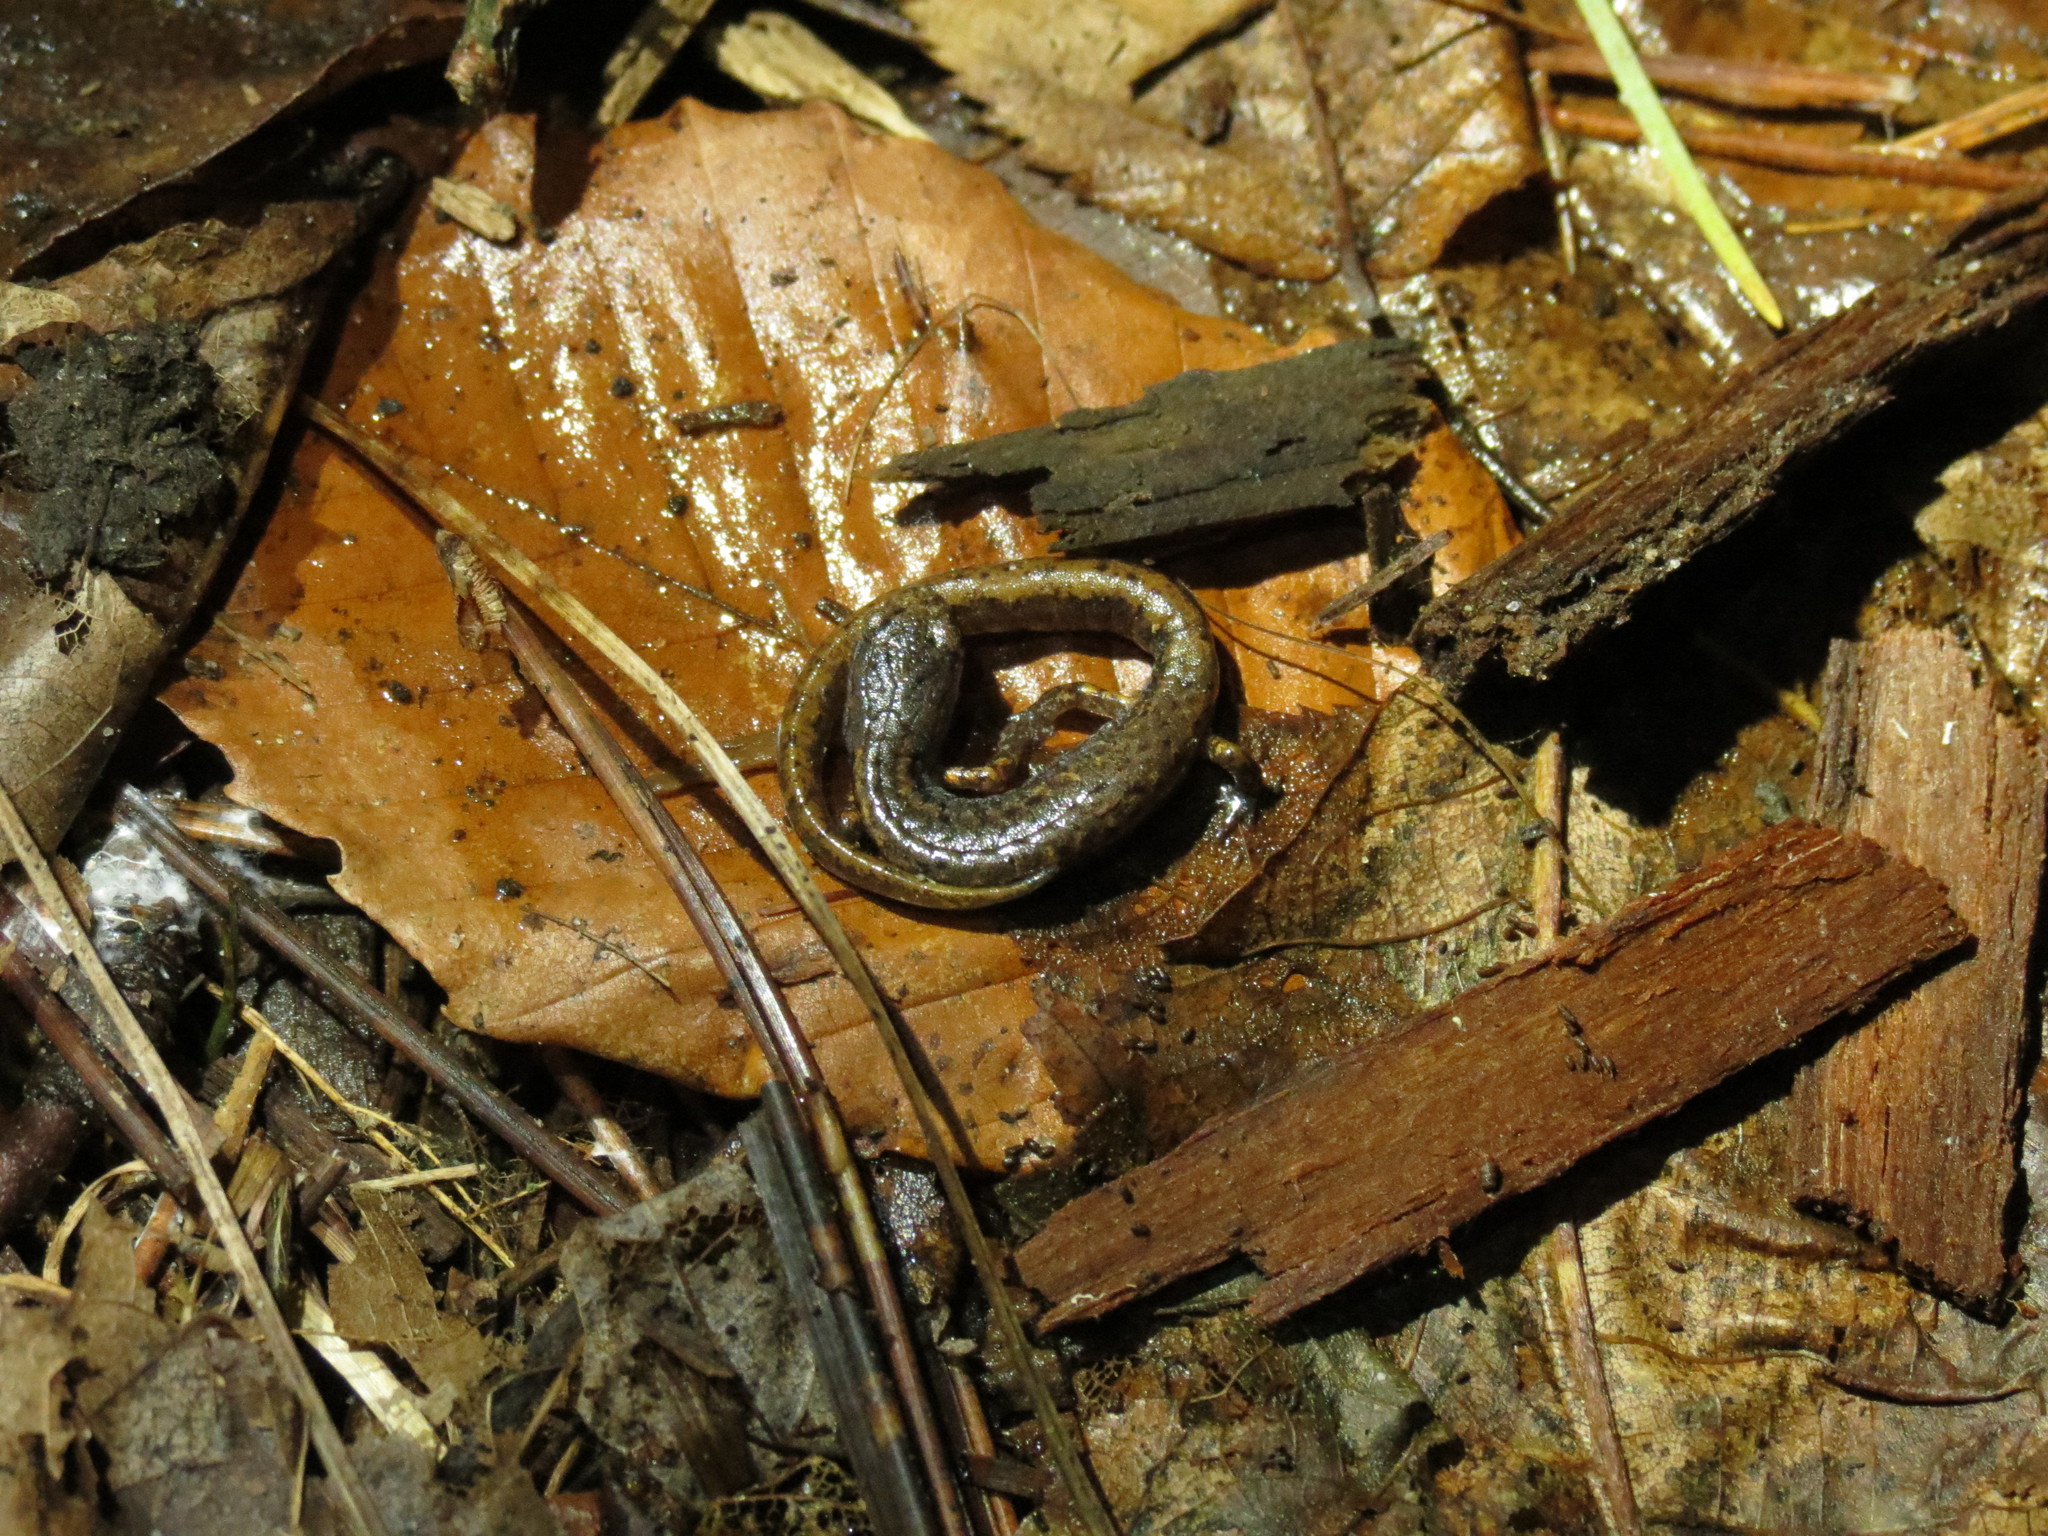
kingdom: Animalia
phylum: Chordata
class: Amphibia
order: Caudata
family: Plethodontidae
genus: Hemidactylium
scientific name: Hemidactylium scutatum
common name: Four-toed salamander
